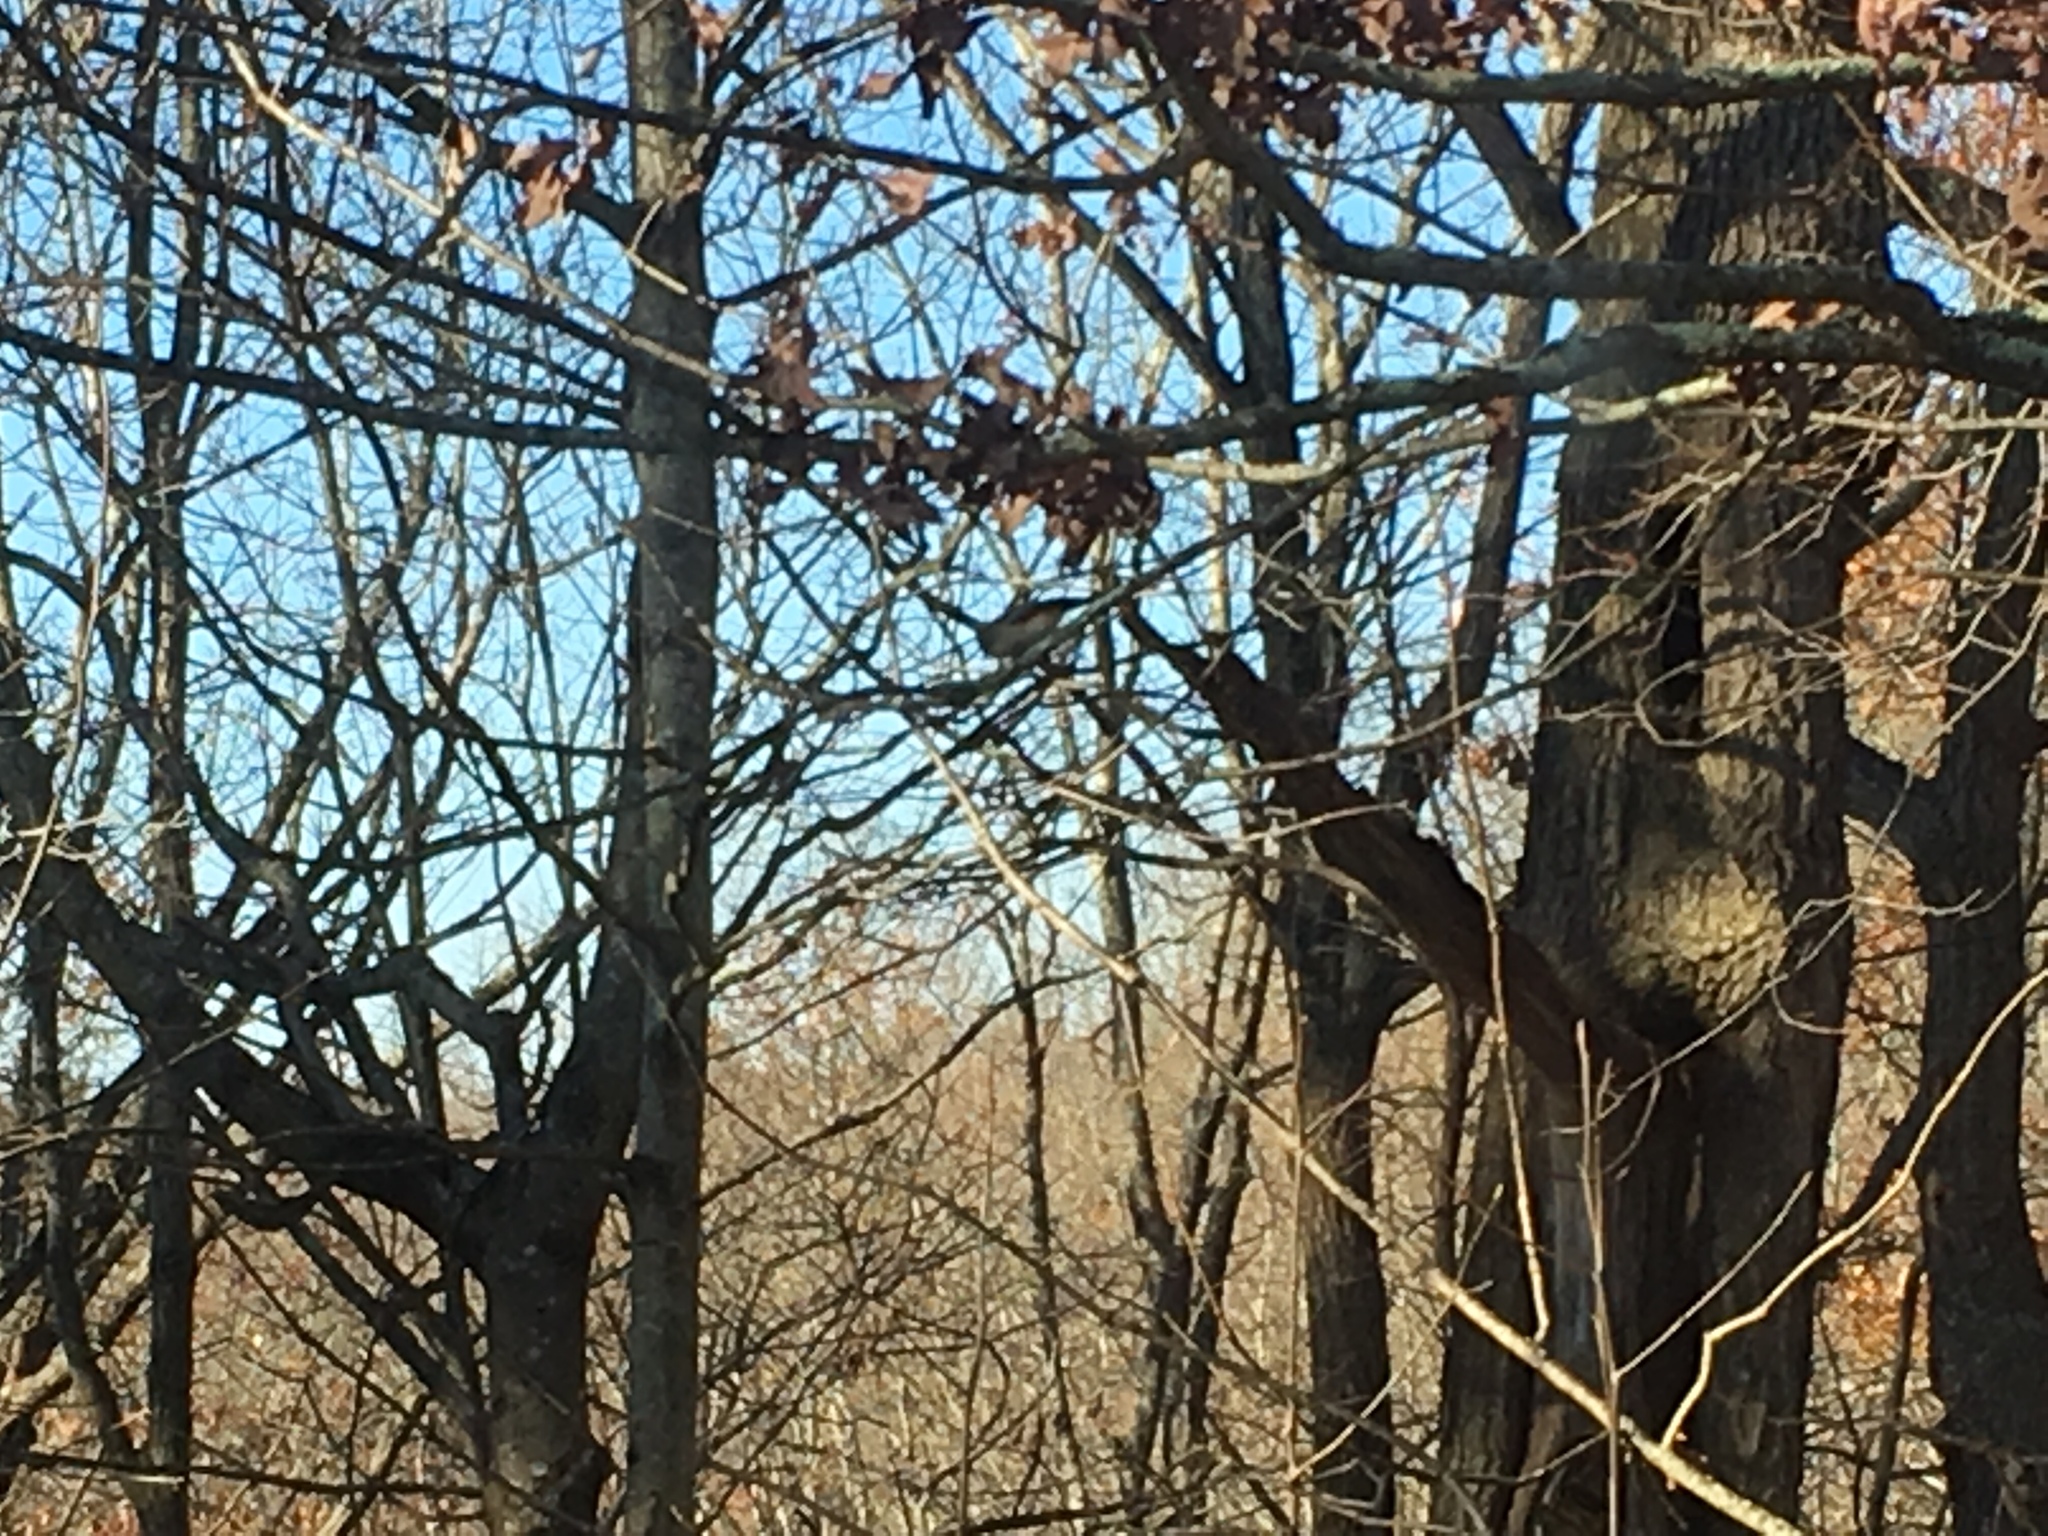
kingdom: Animalia
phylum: Chordata
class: Aves
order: Passeriformes
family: Paridae
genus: Baeolophus
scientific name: Baeolophus bicolor
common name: Tufted titmouse
